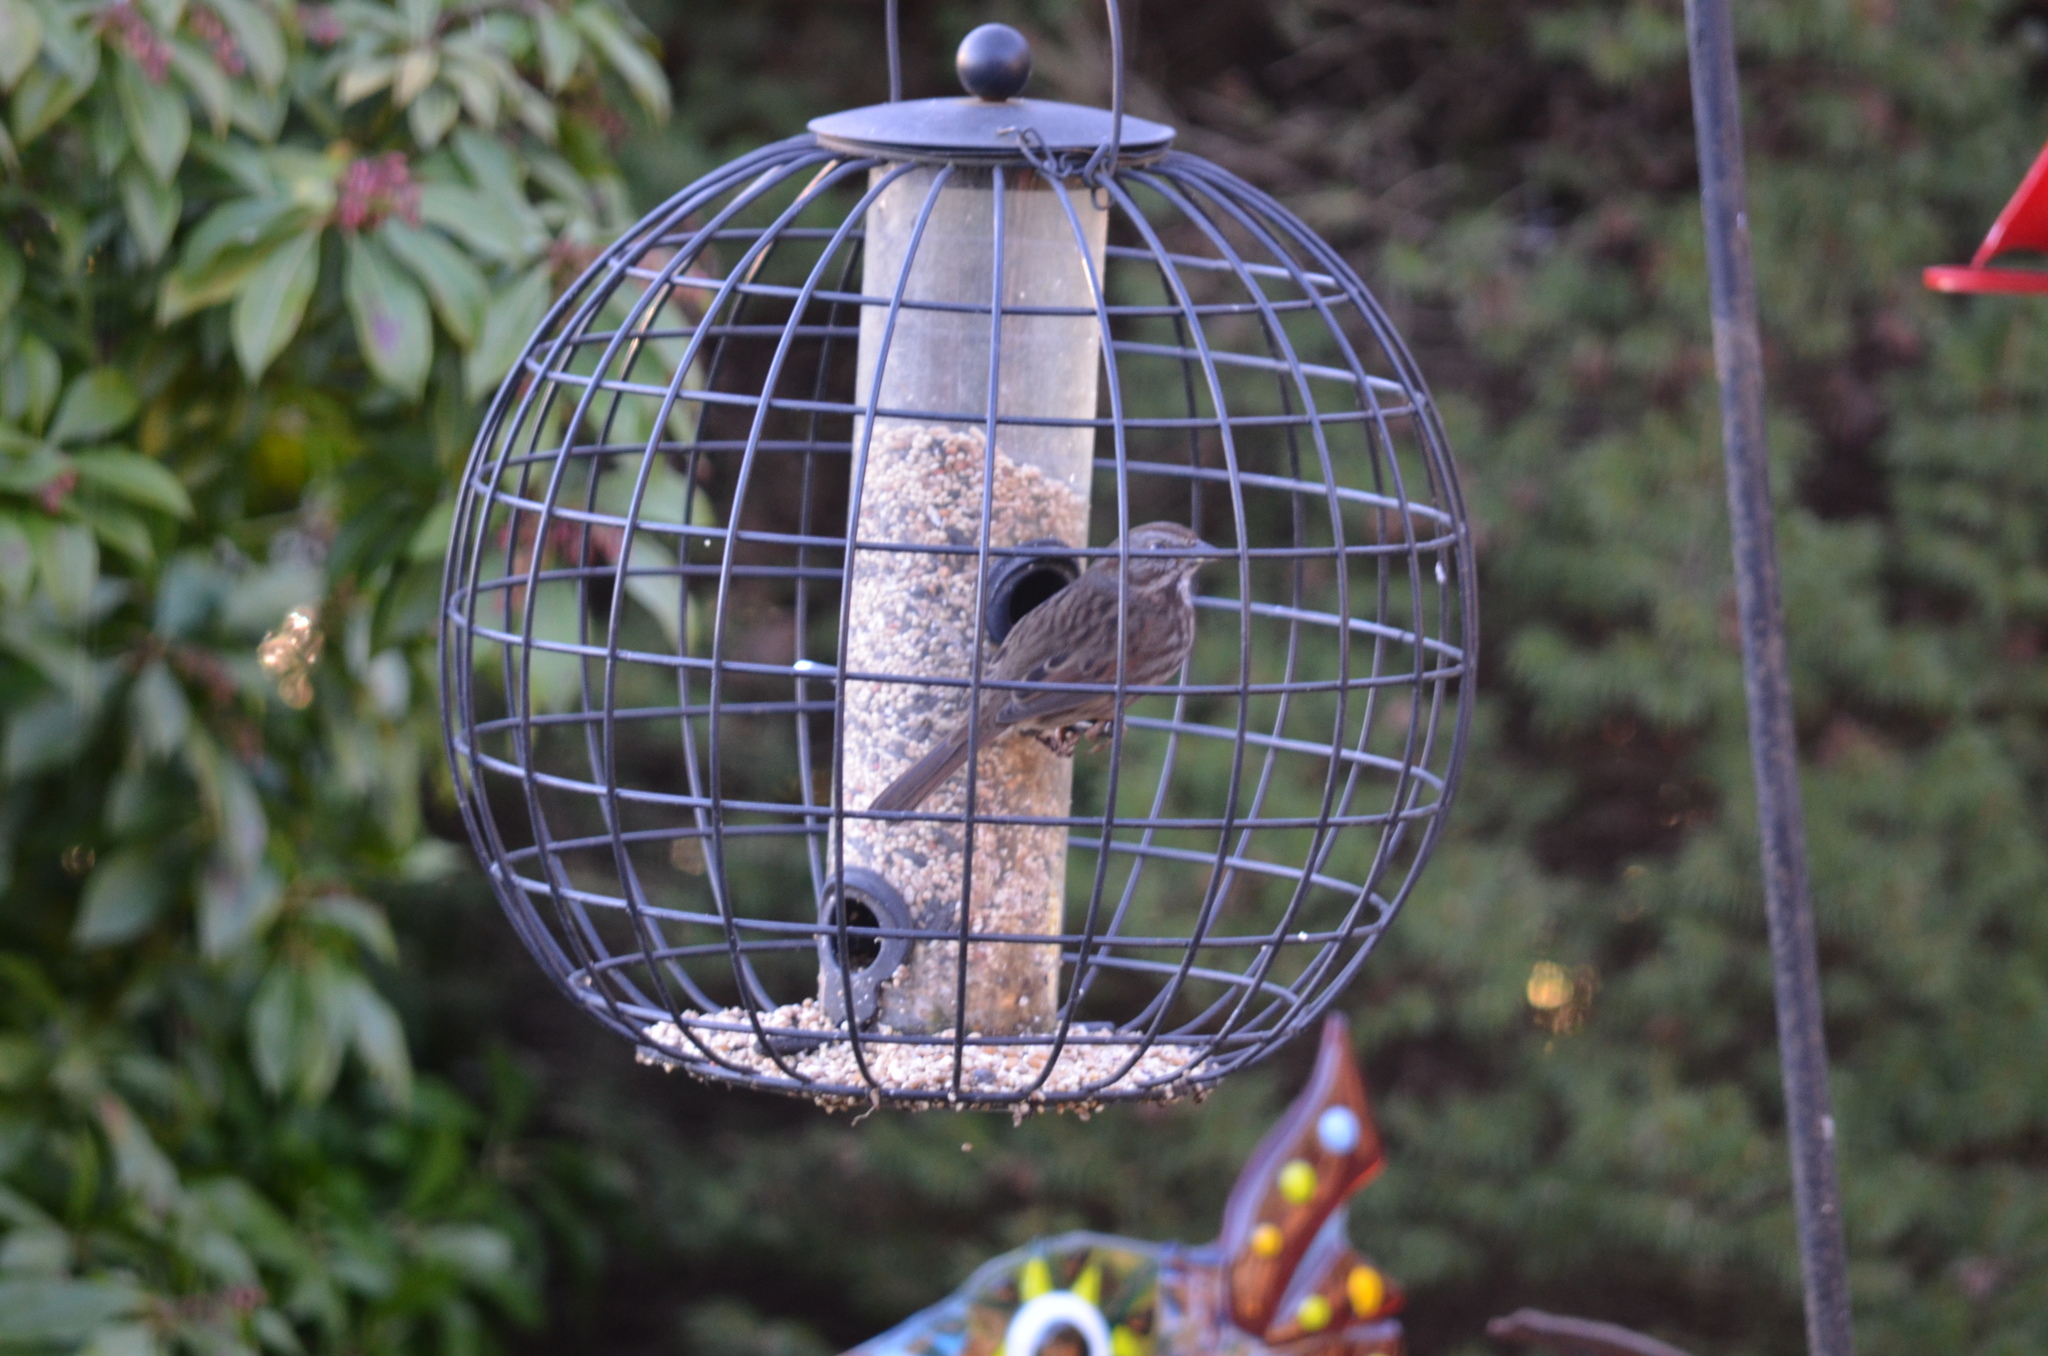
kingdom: Animalia
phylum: Chordata
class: Aves
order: Passeriformes
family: Passerellidae
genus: Melospiza
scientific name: Melospiza melodia
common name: Song sparrow
